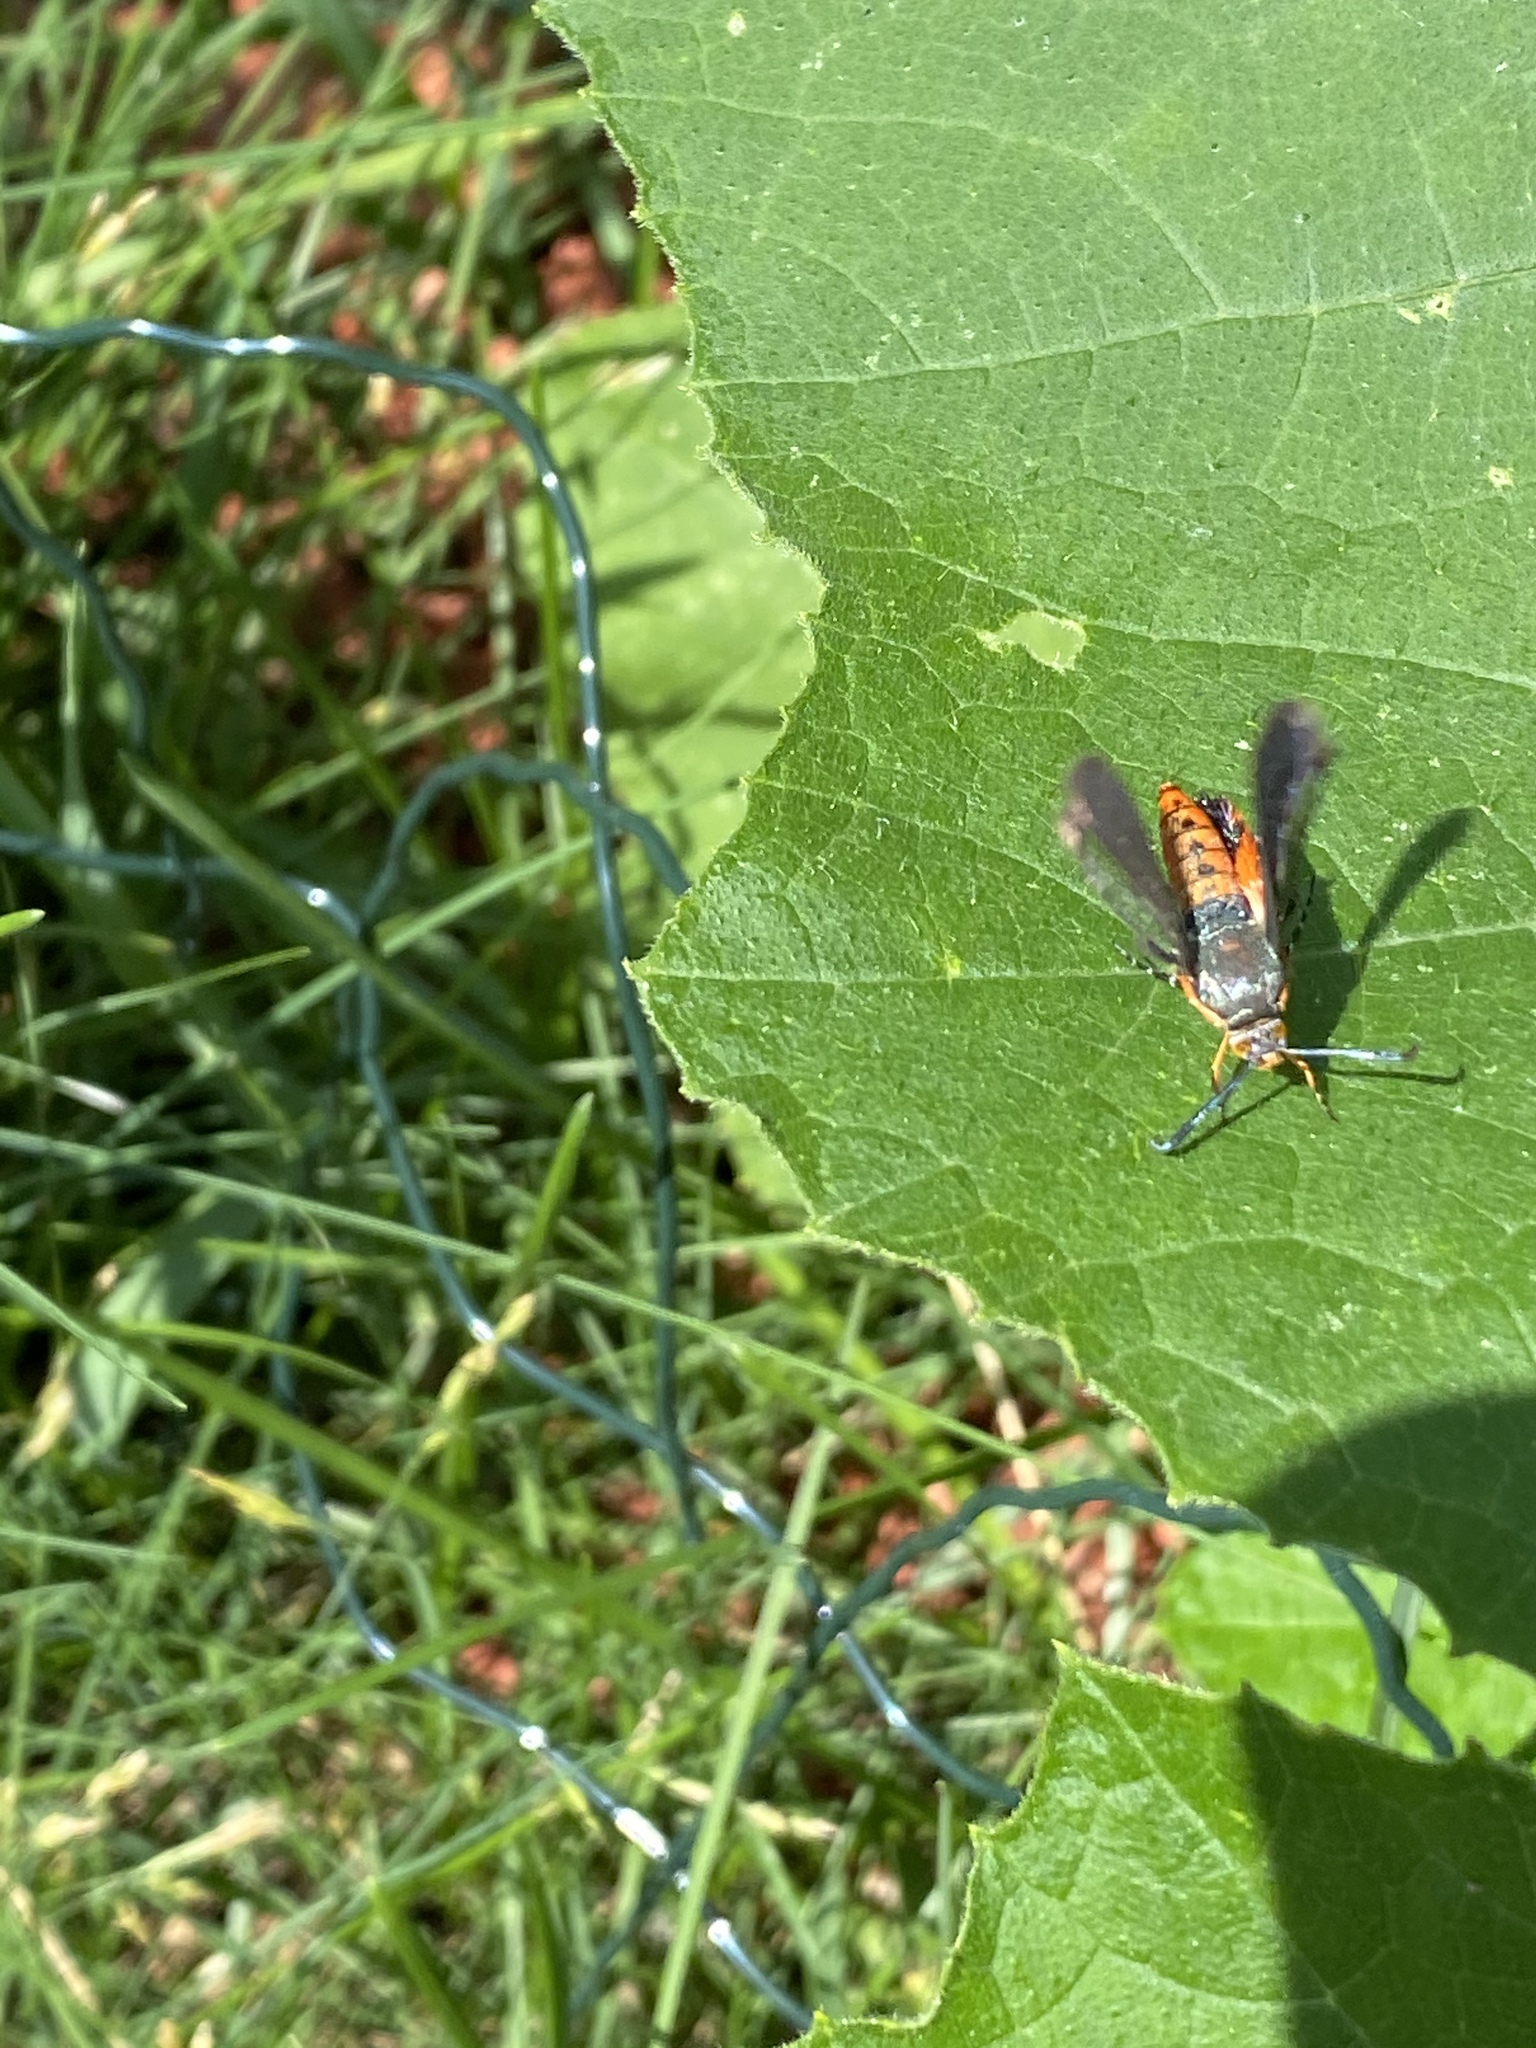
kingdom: Animalia
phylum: Arthropoda
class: Insecta
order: Lepidoptera
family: Sesiidae
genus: Eichlinia
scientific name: Eichlinia cucurbitae
